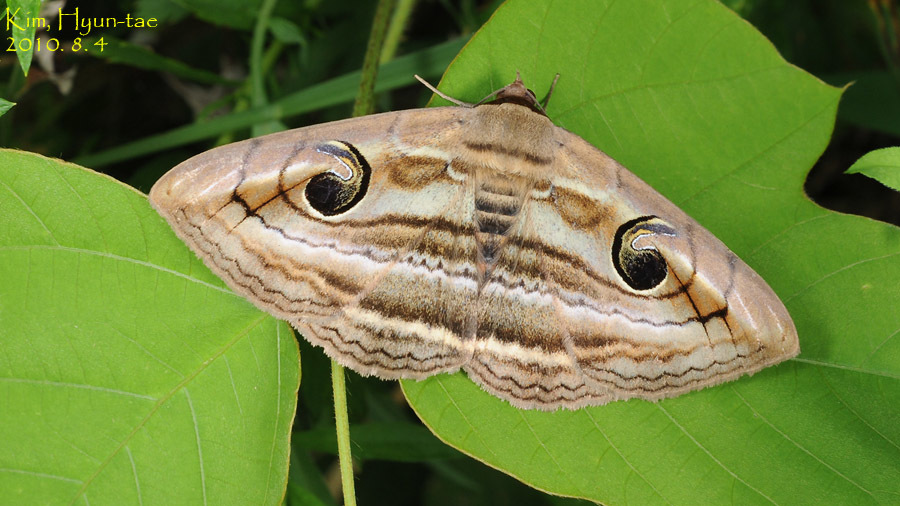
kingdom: Animalia
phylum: Arthropoda
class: Insecta
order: Lepidoptera
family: Erebidae
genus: Spirama
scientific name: Spirama retorta
